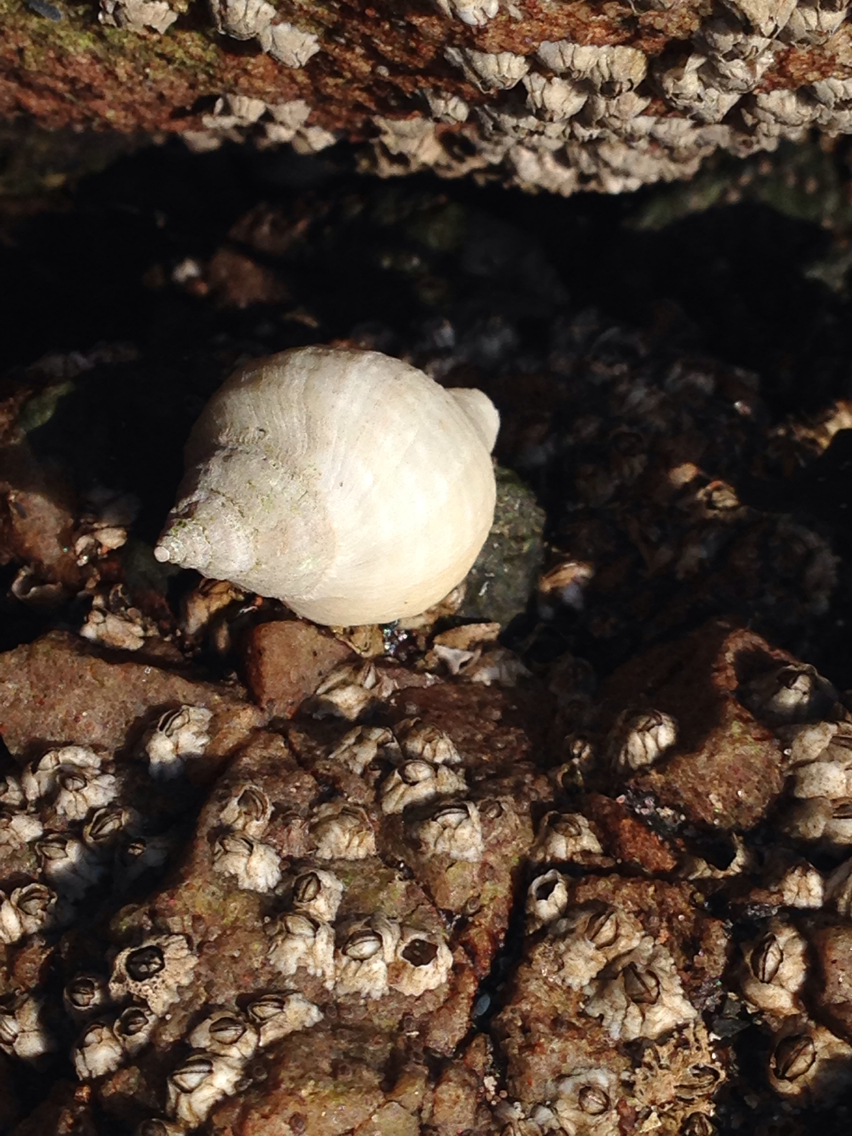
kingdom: Animalia
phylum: Mollusca
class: Gastropoda
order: Neogastropoda
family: Muricidae
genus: Nucella
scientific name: Nucella lapillus
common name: Dog whelk
